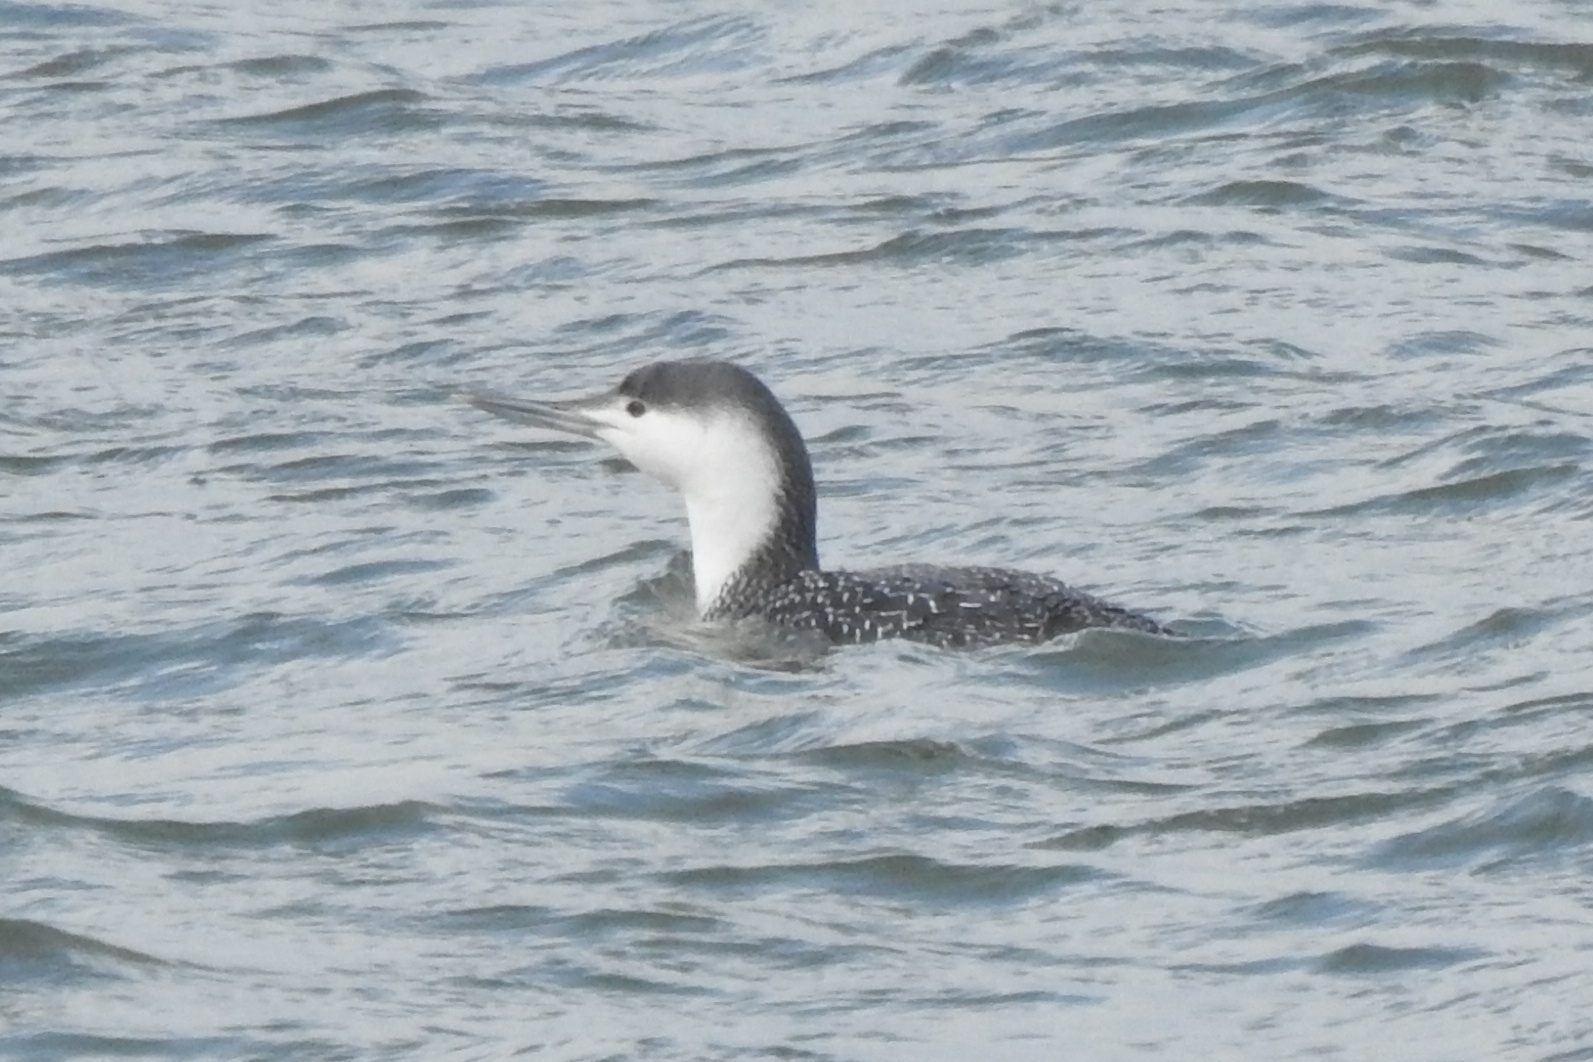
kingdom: Animalia
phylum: Chordata
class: Aves
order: Gaviiformes
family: Gaviidae
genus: Gavia
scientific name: Gavia stellata
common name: Red-throated loon
